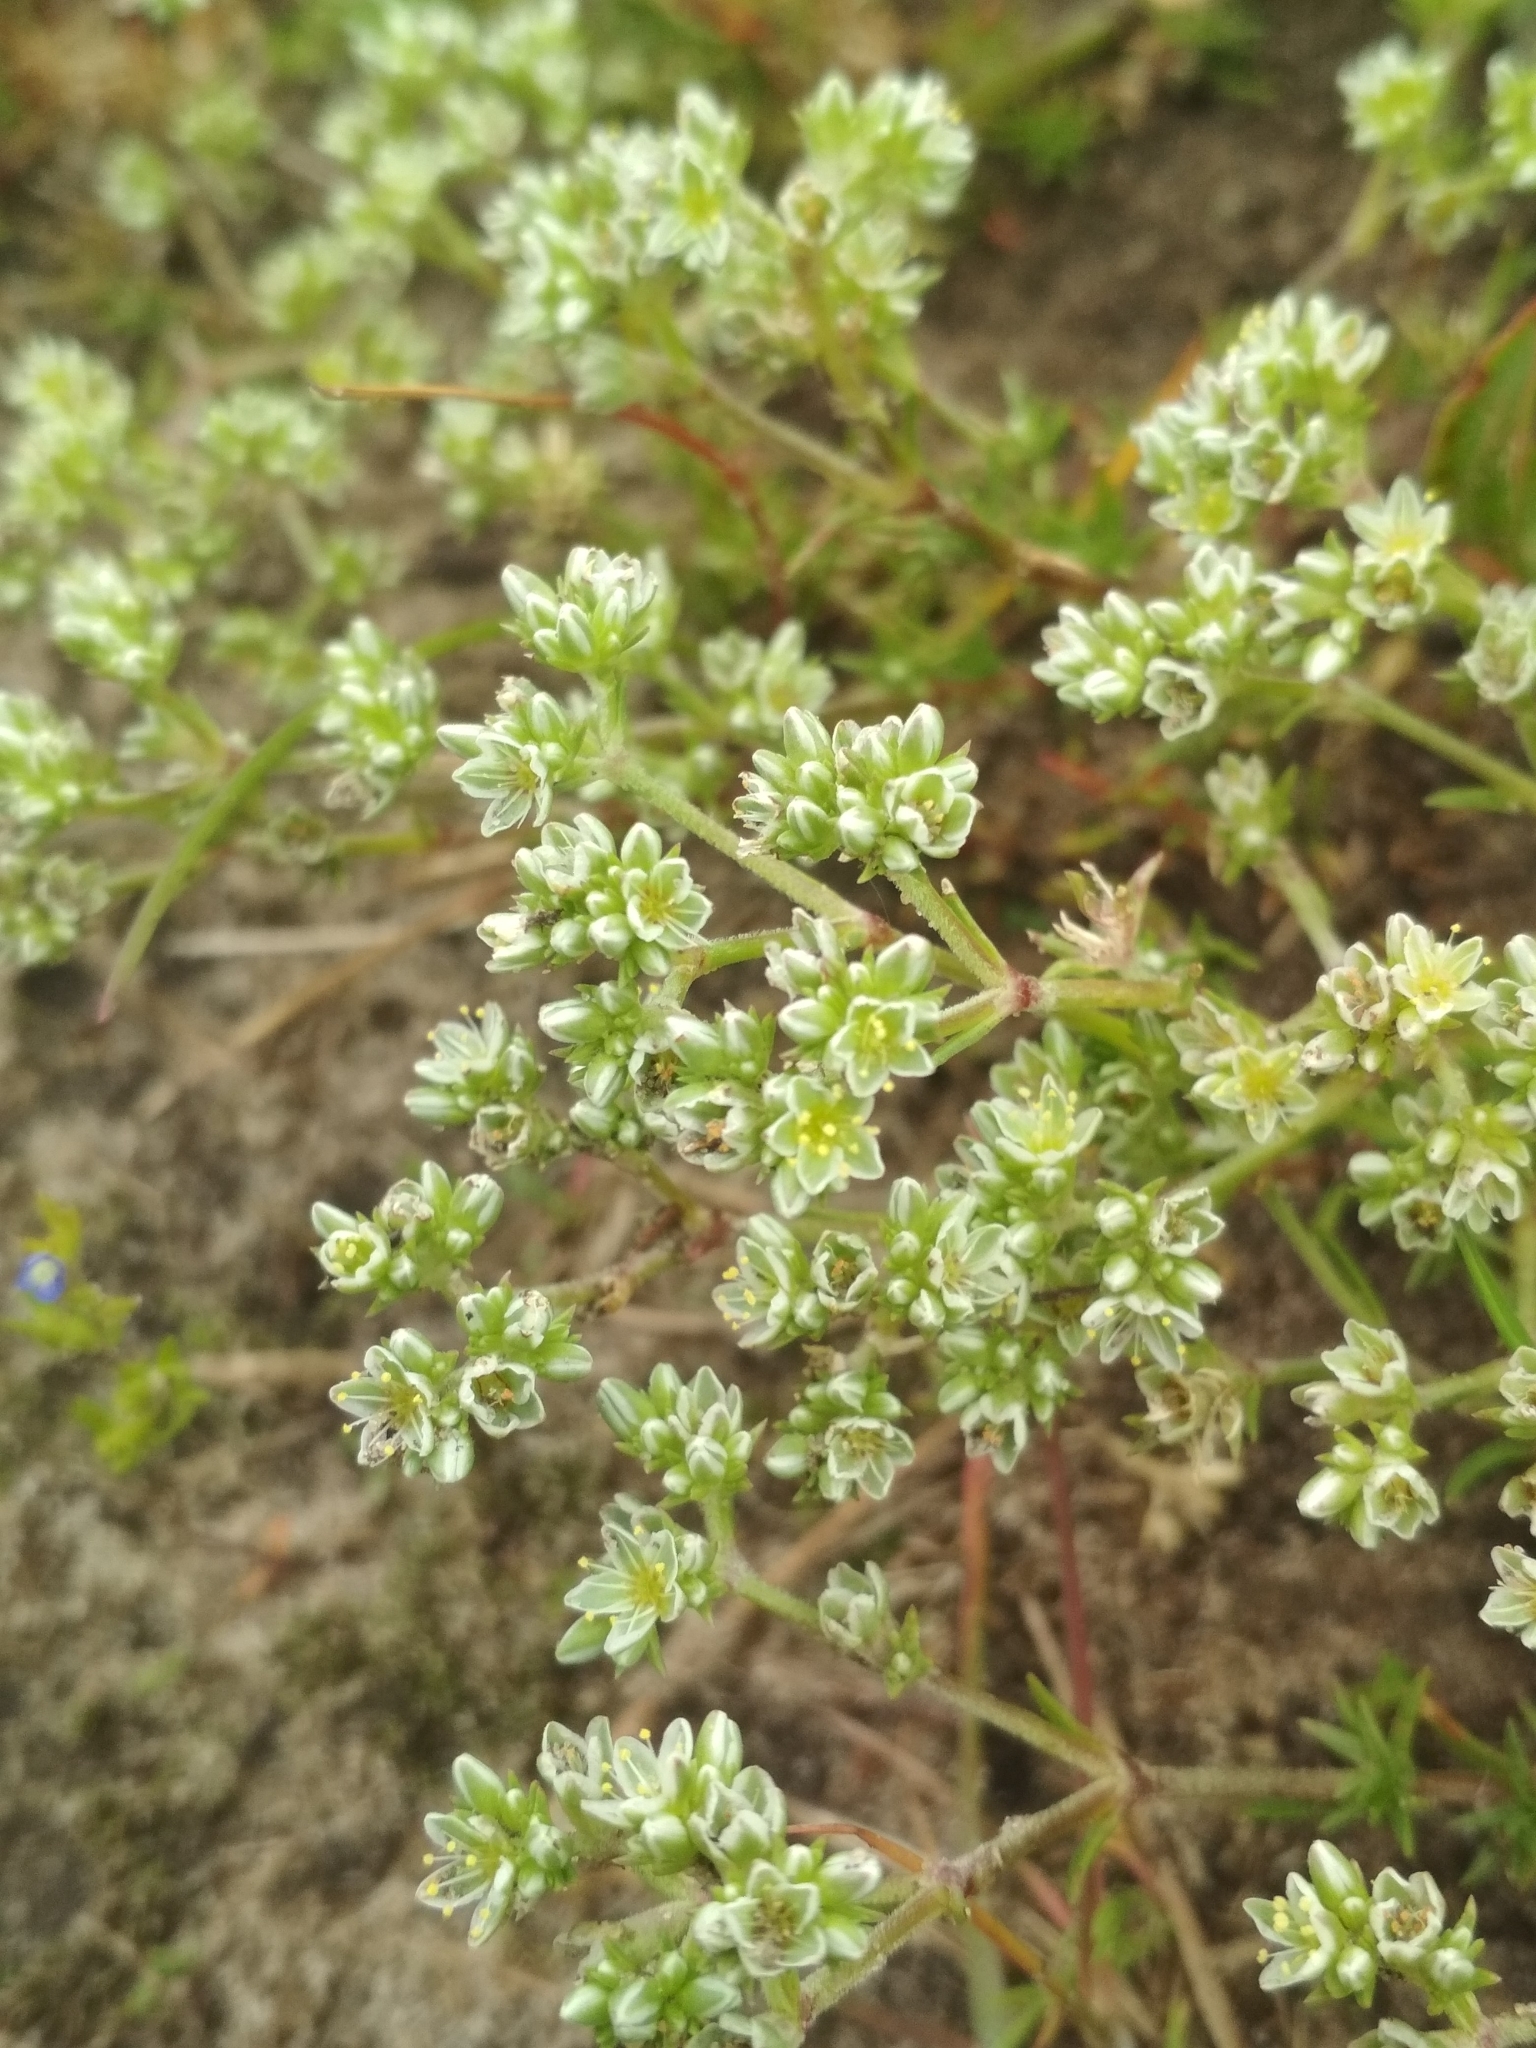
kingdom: Plantae
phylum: Tracheophyta
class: Magnoliopsida
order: Caryophyllales
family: Caryophyllaceae
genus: Scleranthus
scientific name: Scleranthus perennis
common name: Perennial knawel
